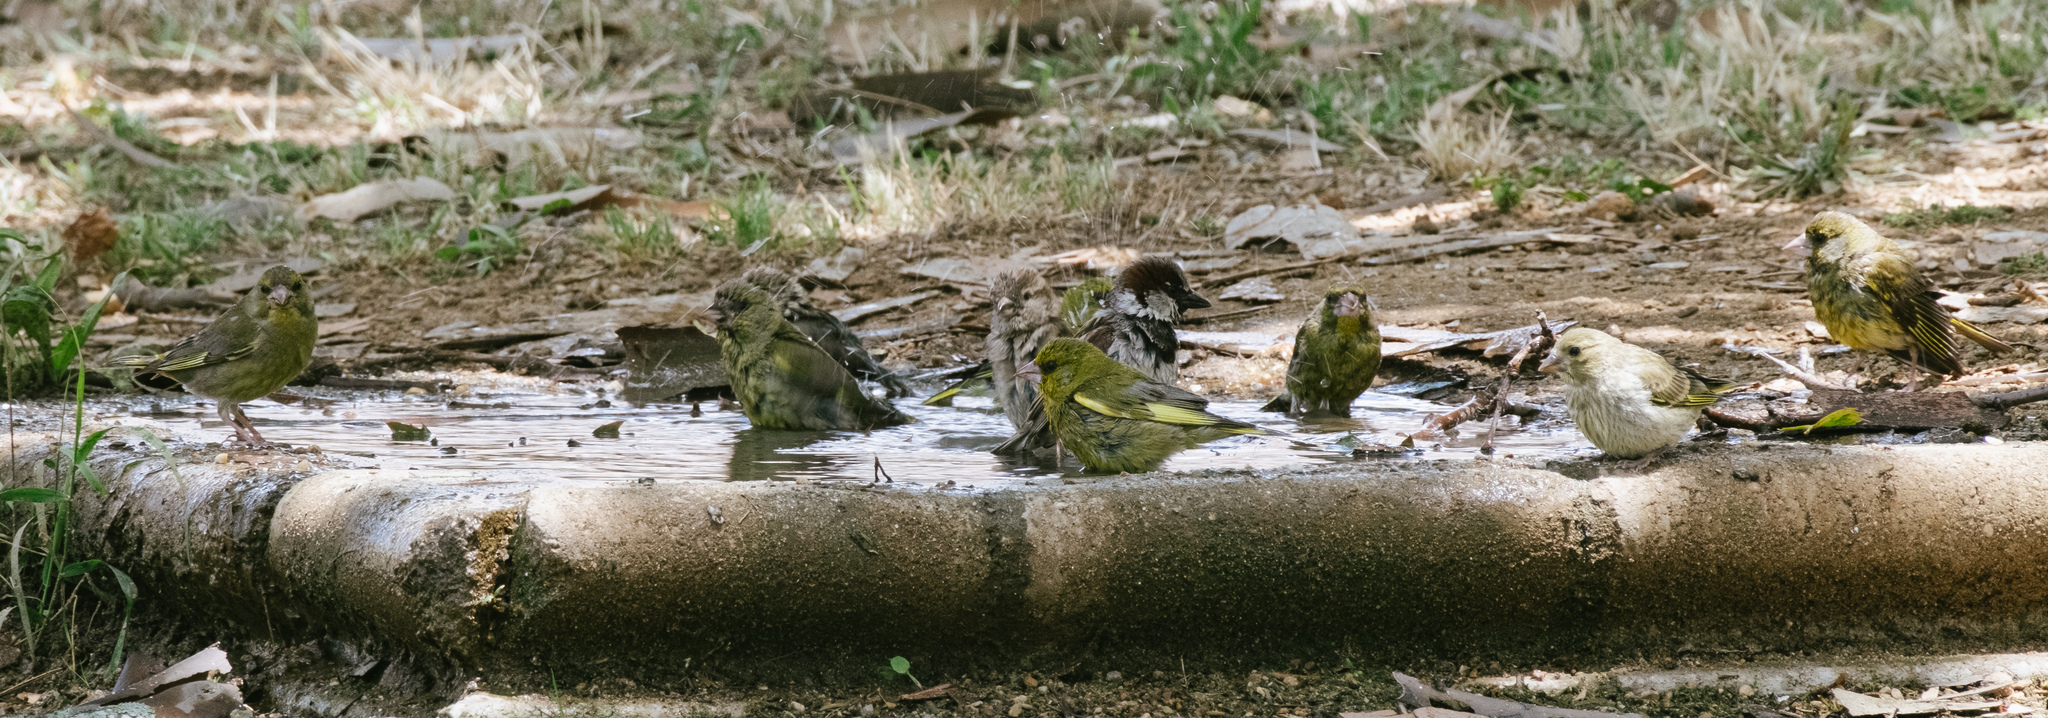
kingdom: Animalia
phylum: Chordata
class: Aves
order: Passeriformes
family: Passeridae
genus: Passer
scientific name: Passer domesticus
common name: House sparrow
